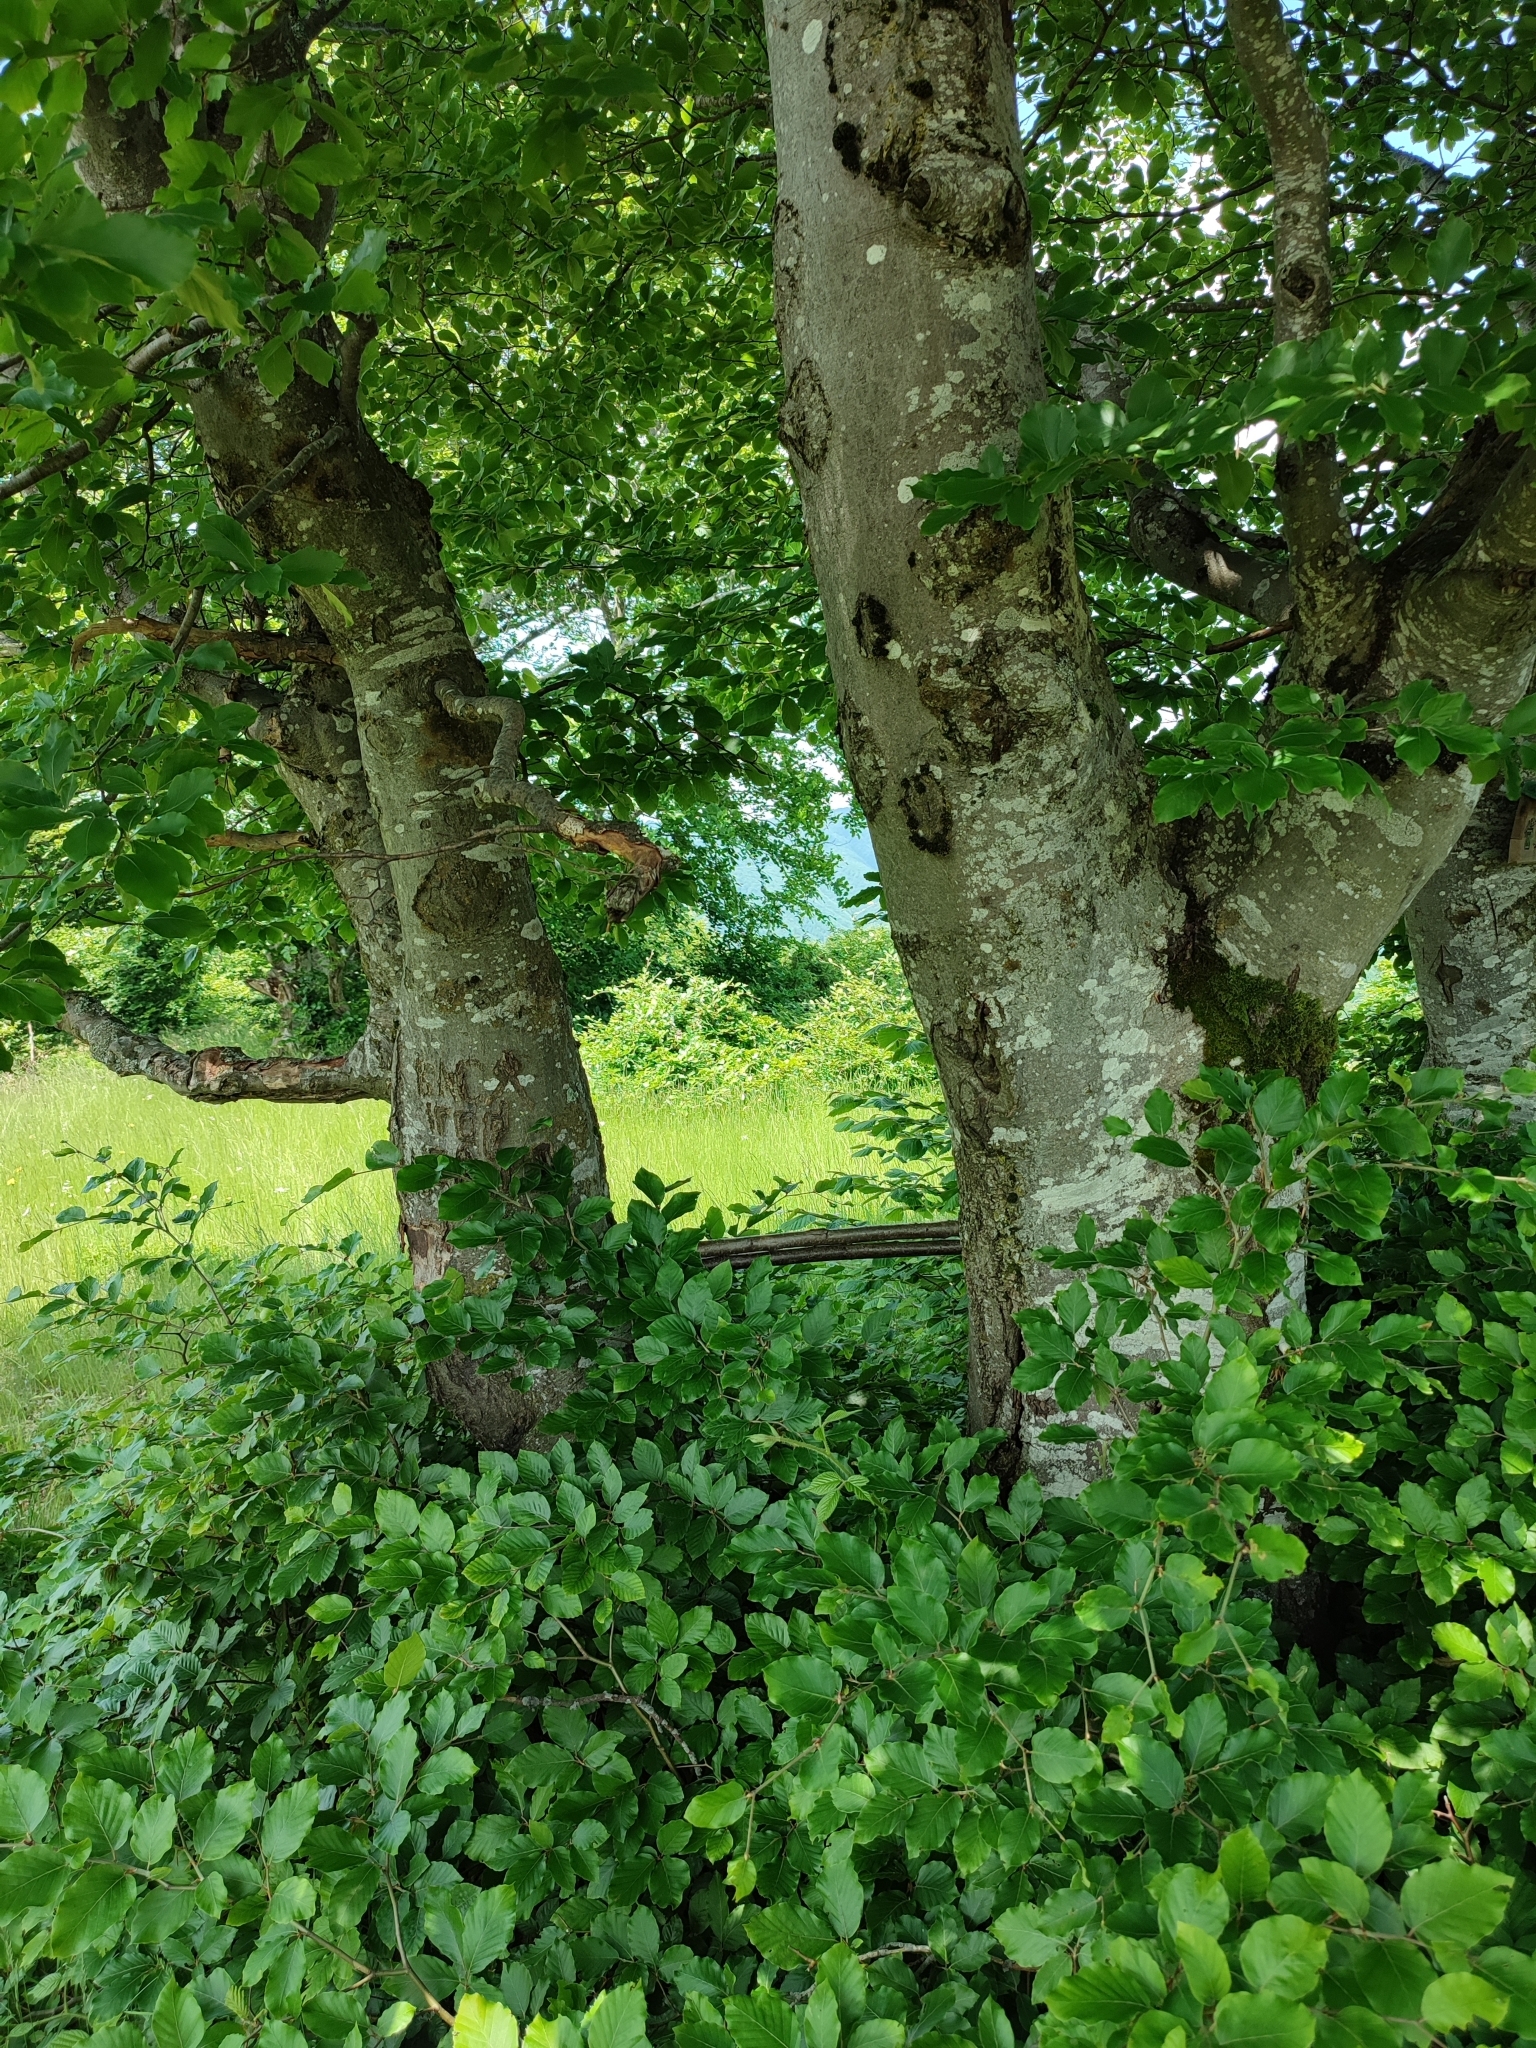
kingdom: Plantae
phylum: Tracheophyta
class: Magnoliopsida
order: Fagales
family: Fagaceae
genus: Fagus
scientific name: Fagus sylvatica
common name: Beech
